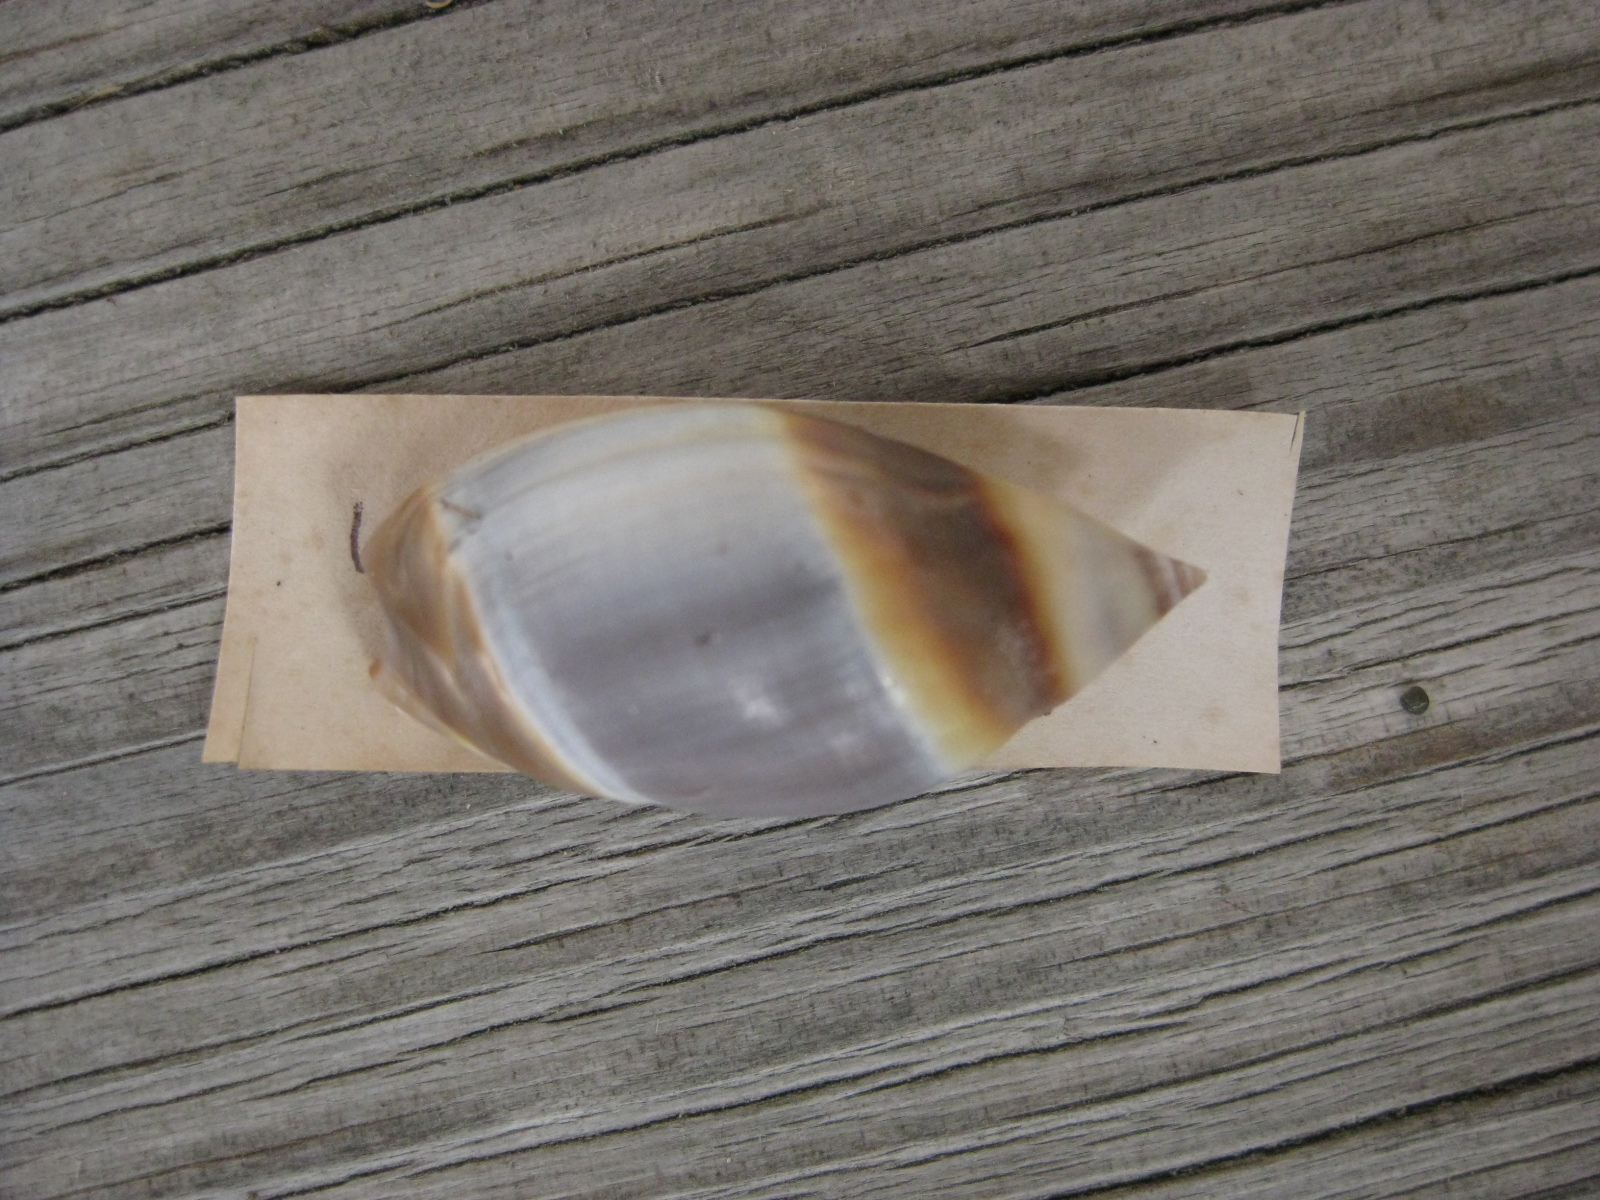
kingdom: Animalia
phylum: Mollusca
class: Gastropoda
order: Neogastropoda
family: Ancillariidae
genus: Amalda
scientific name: Amalda australis
